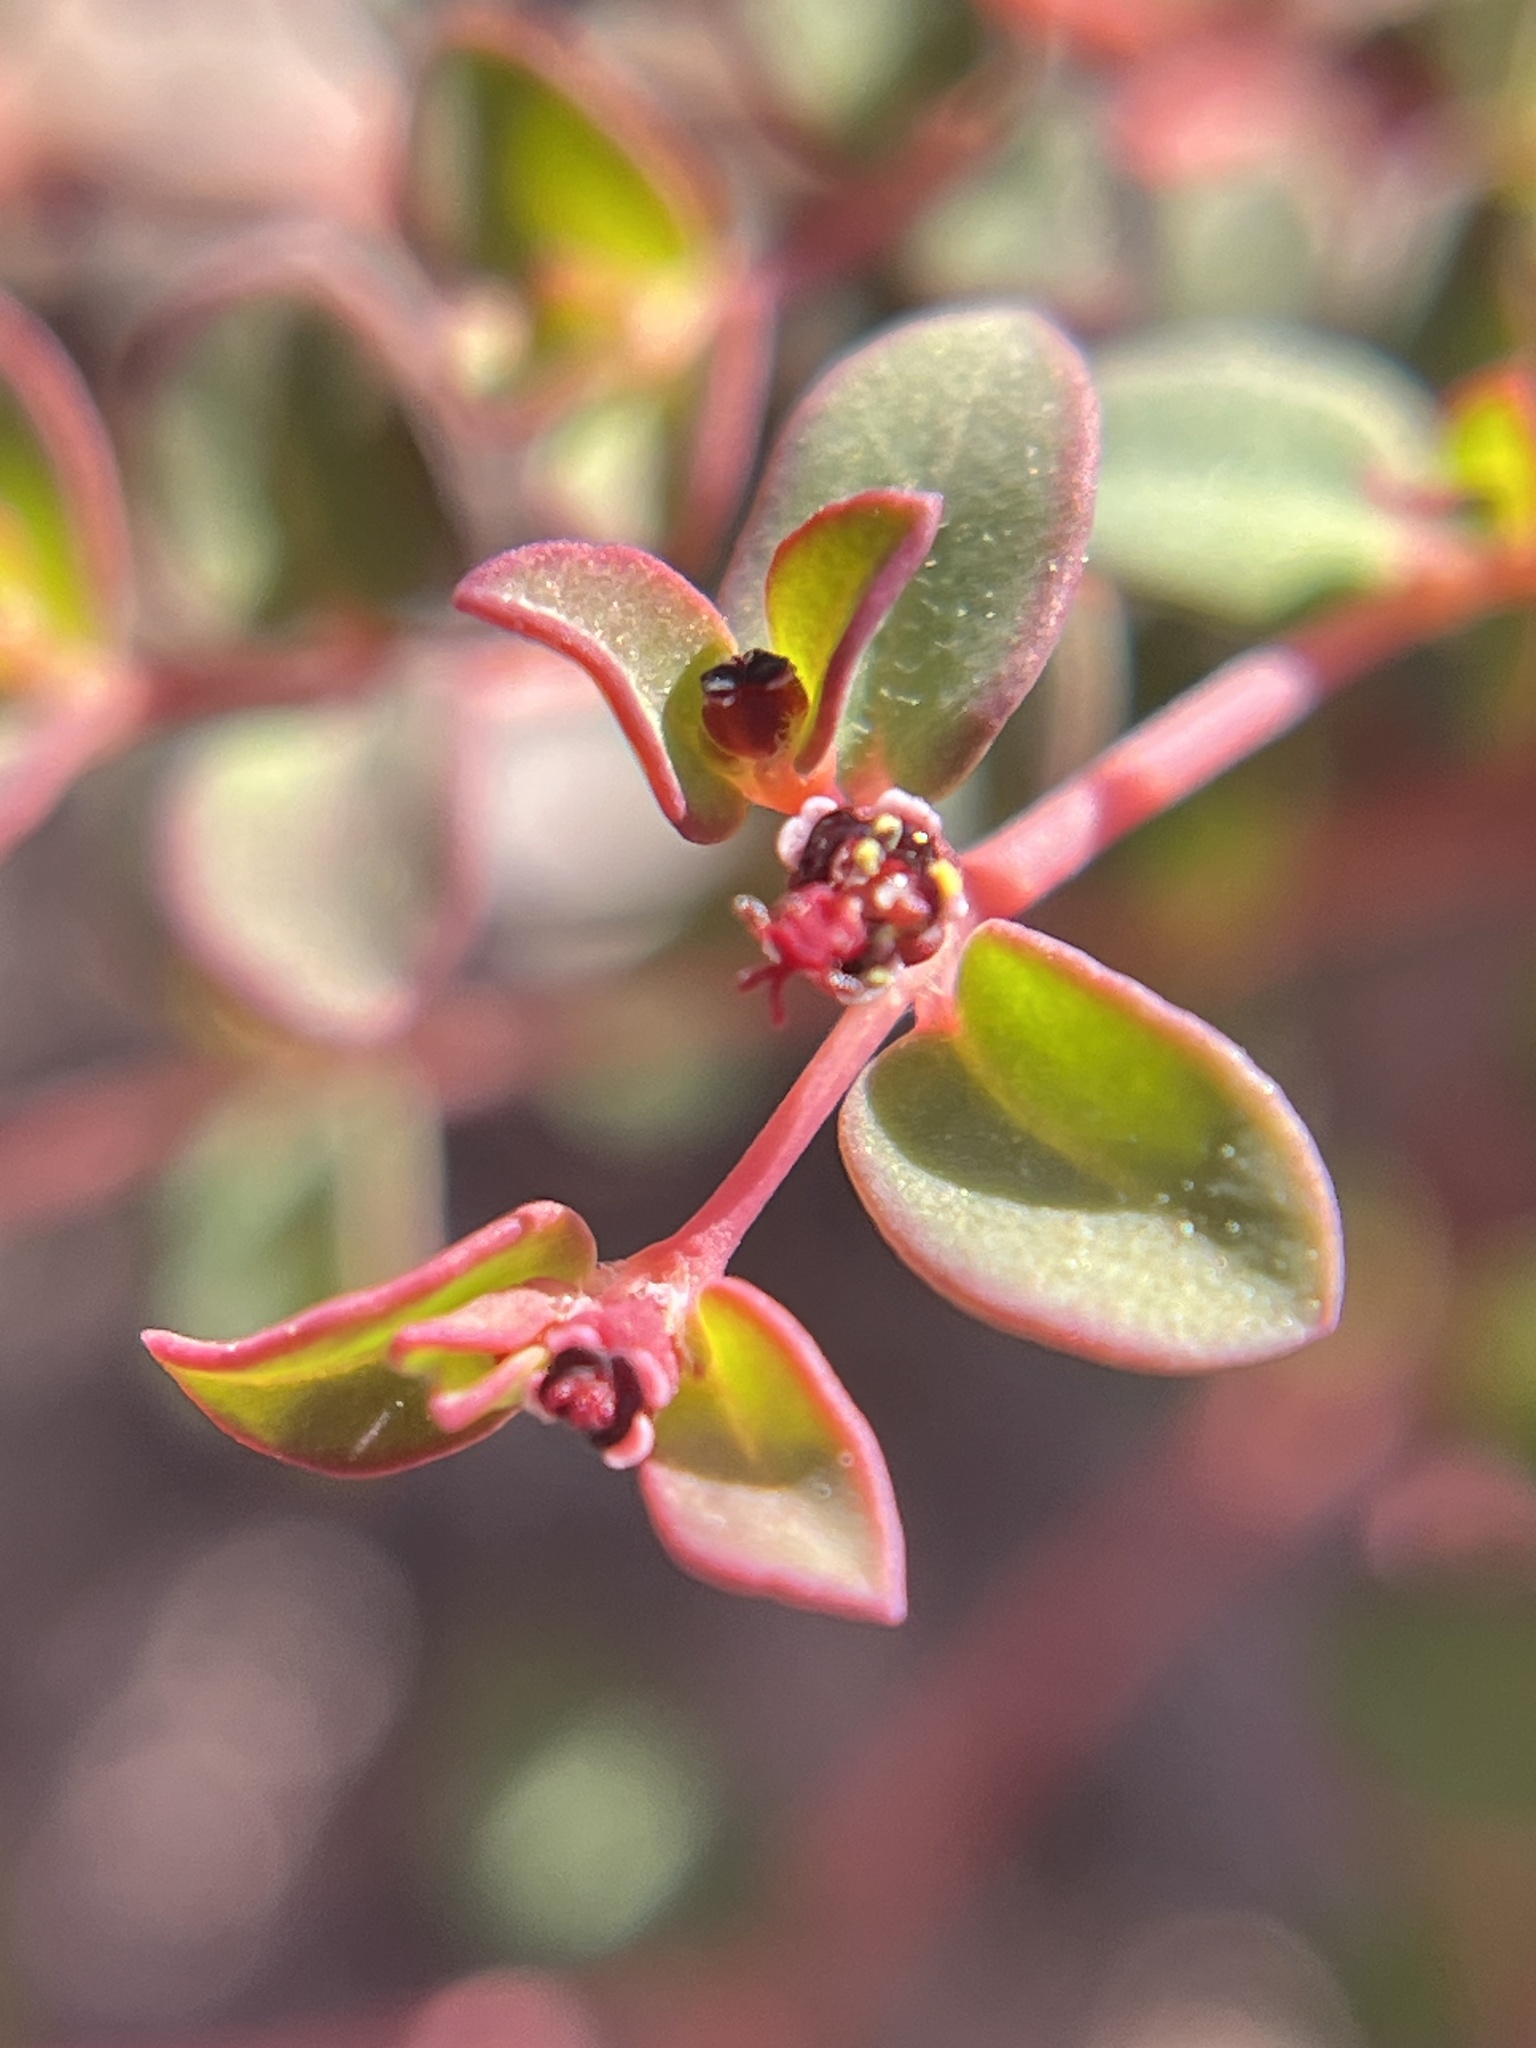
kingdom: Plantae
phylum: Tracheophyta
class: Magnoliopsida
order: Malpighiales
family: Euphorbiaceae
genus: Euphorbia
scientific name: Euphorbia polycarpa
